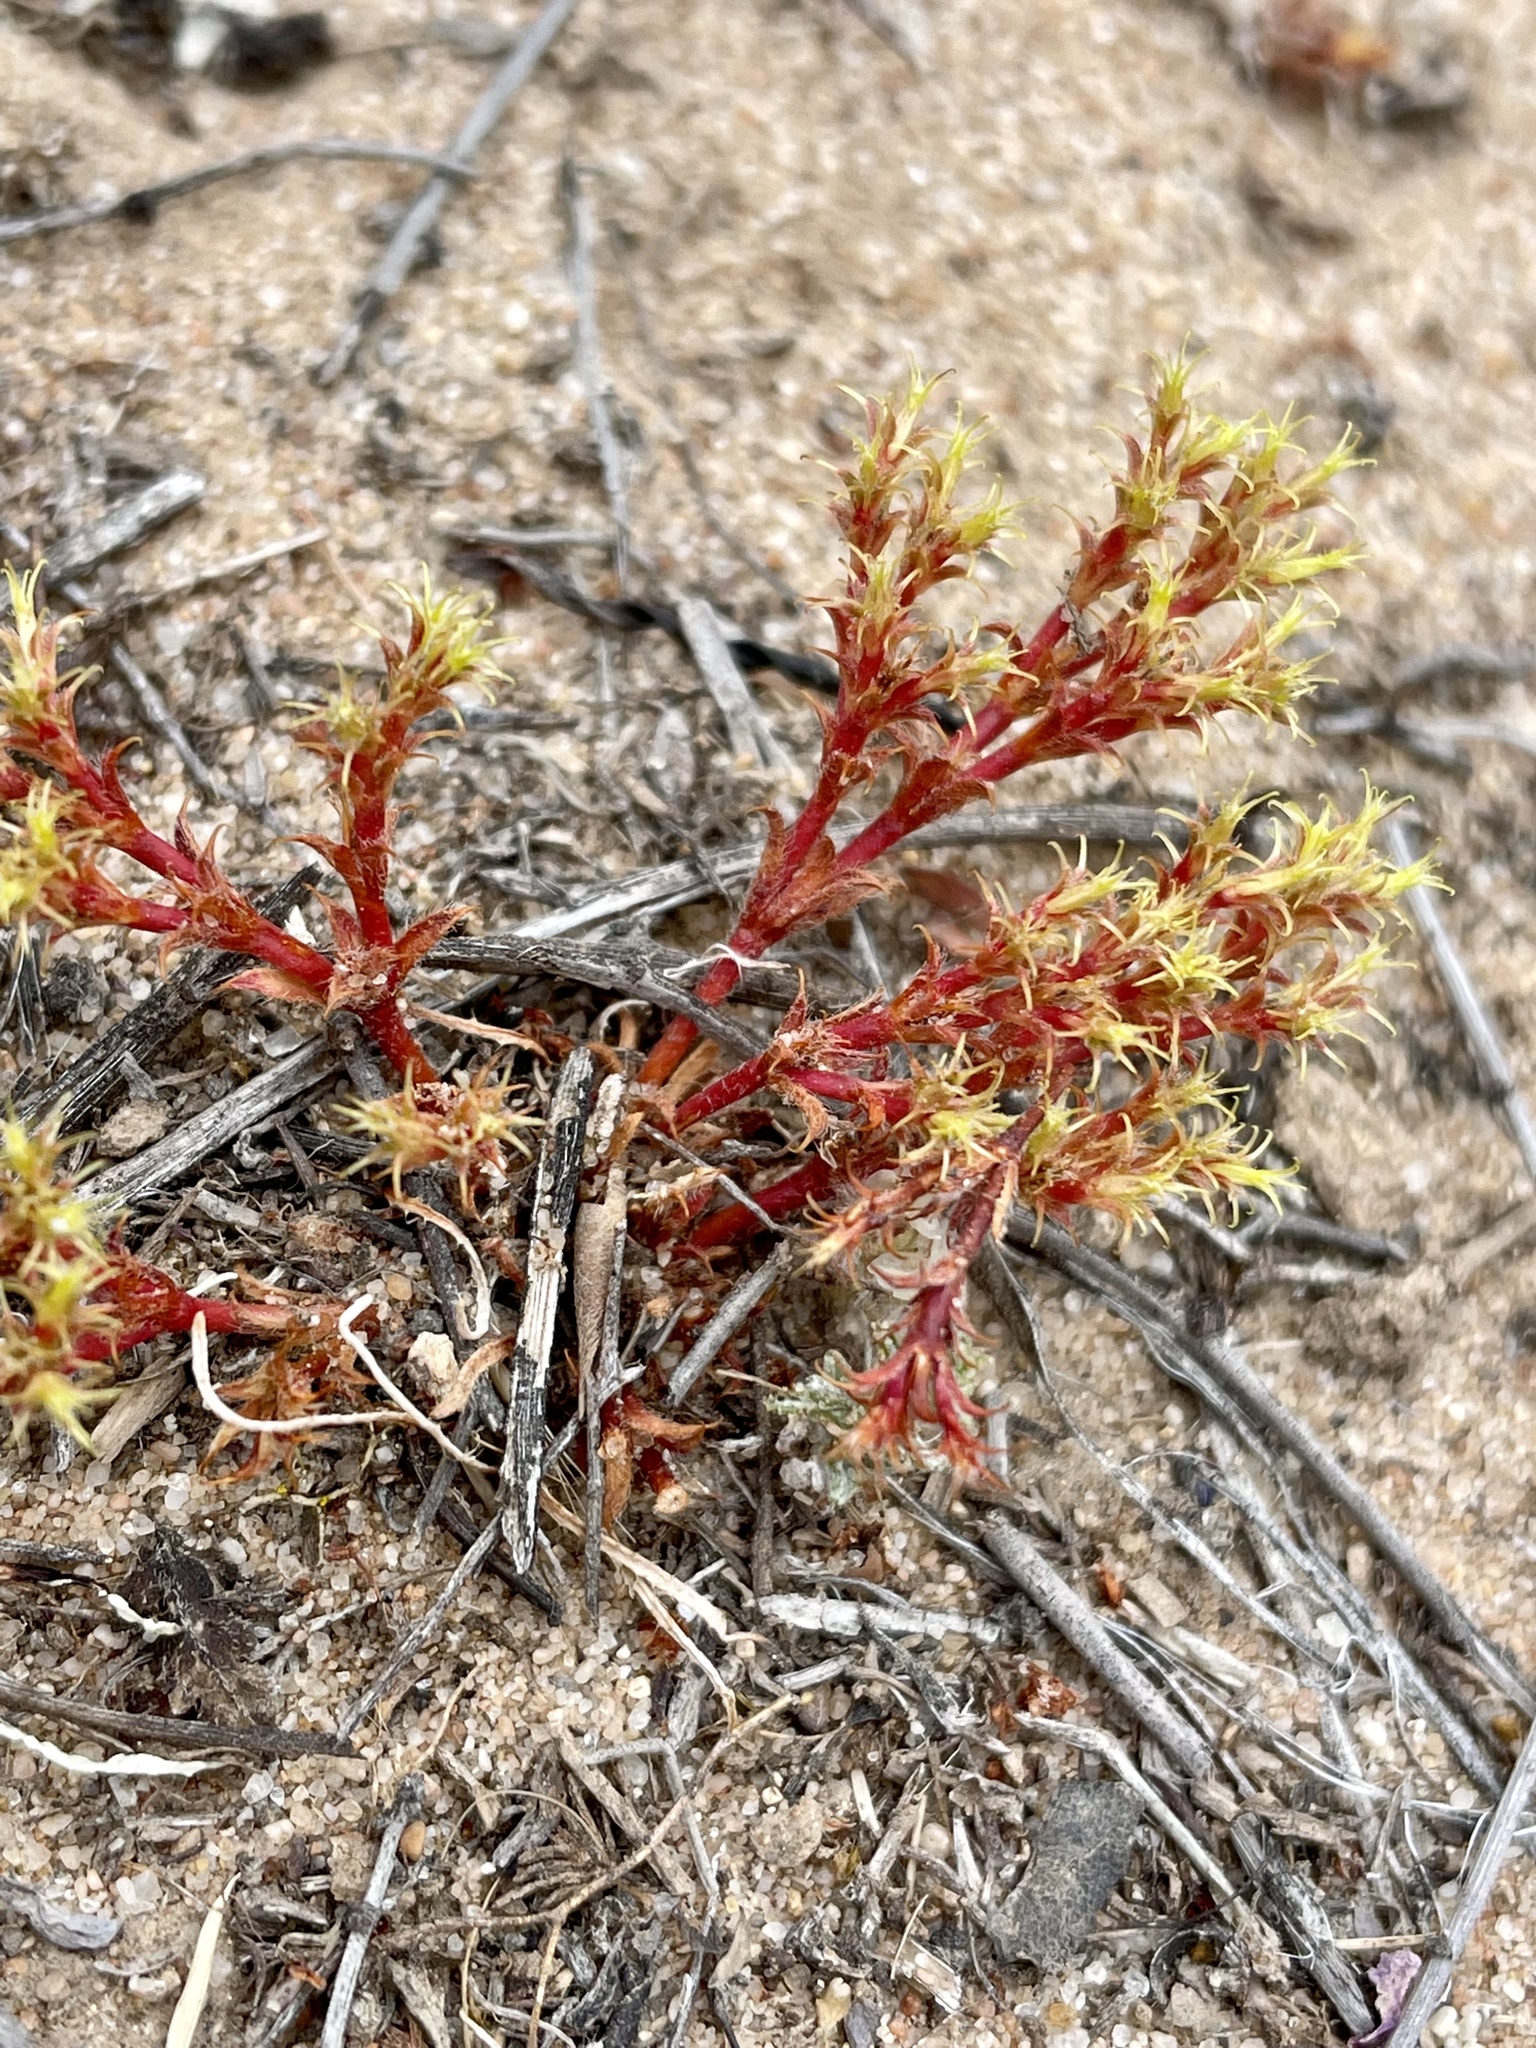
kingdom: Plantae
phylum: Tracheophyta
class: Magnoliopsida
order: Caryophyllales
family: Polygonaceae
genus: Lastarriaea
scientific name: Lastarriaea coriacea
